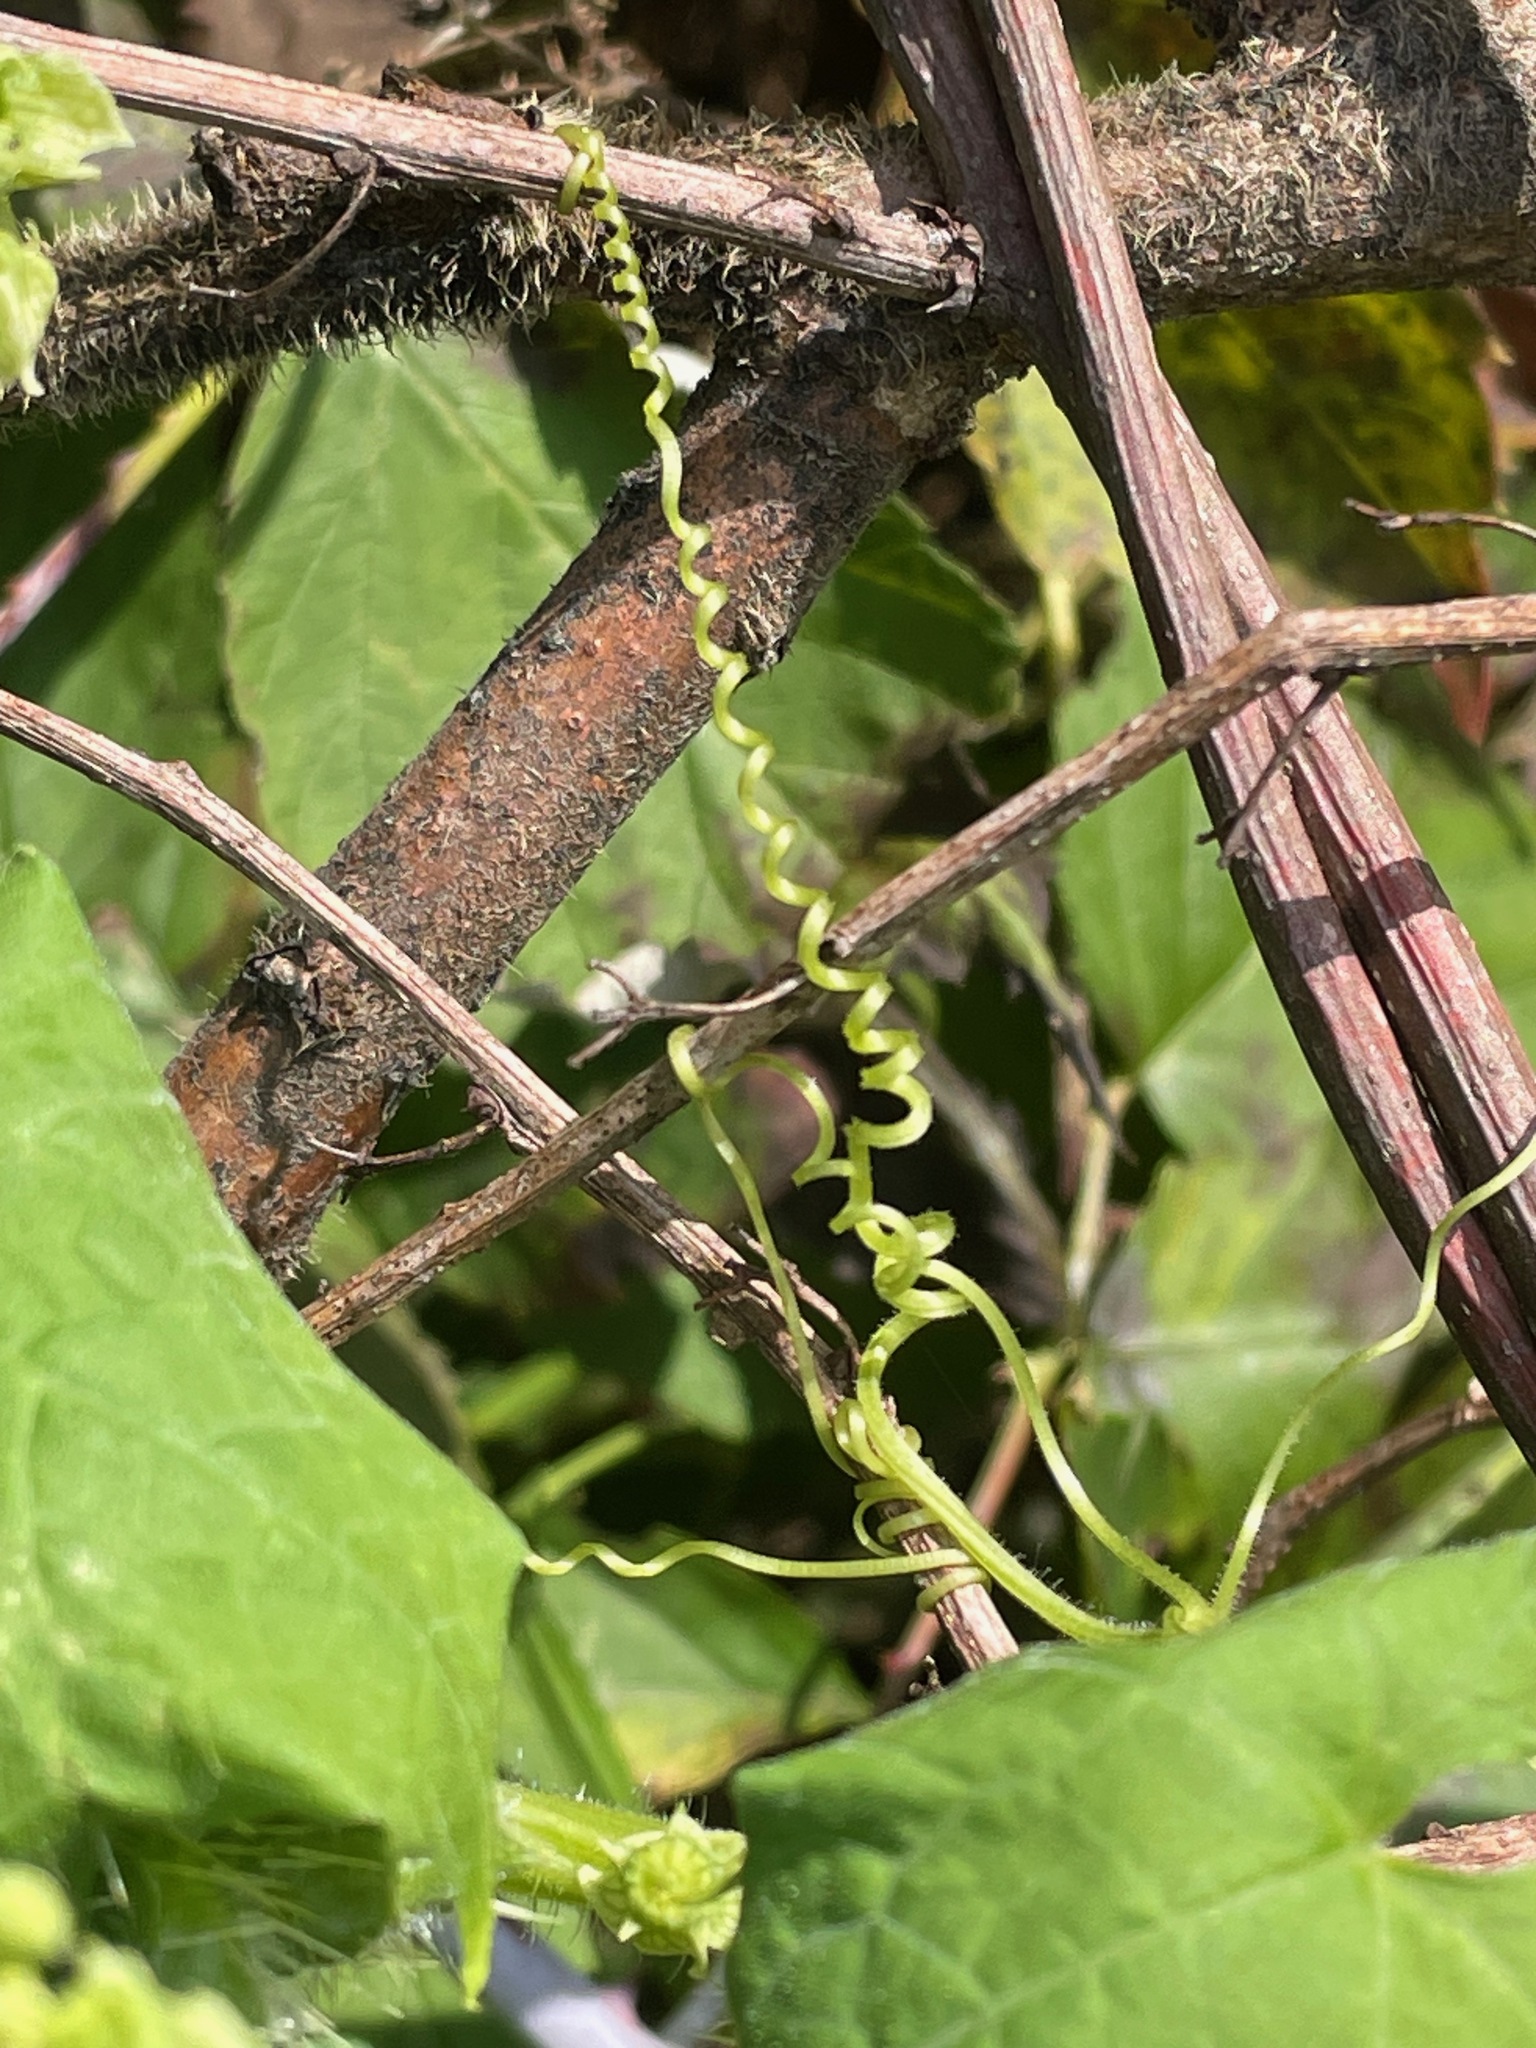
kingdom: Plantae
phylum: Tracheophyta
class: Magnoliopsida
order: Cucurbitales
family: Cucurbitaceae
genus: Sicyos
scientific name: Sicyos angulatus
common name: Angled burr cucumber
